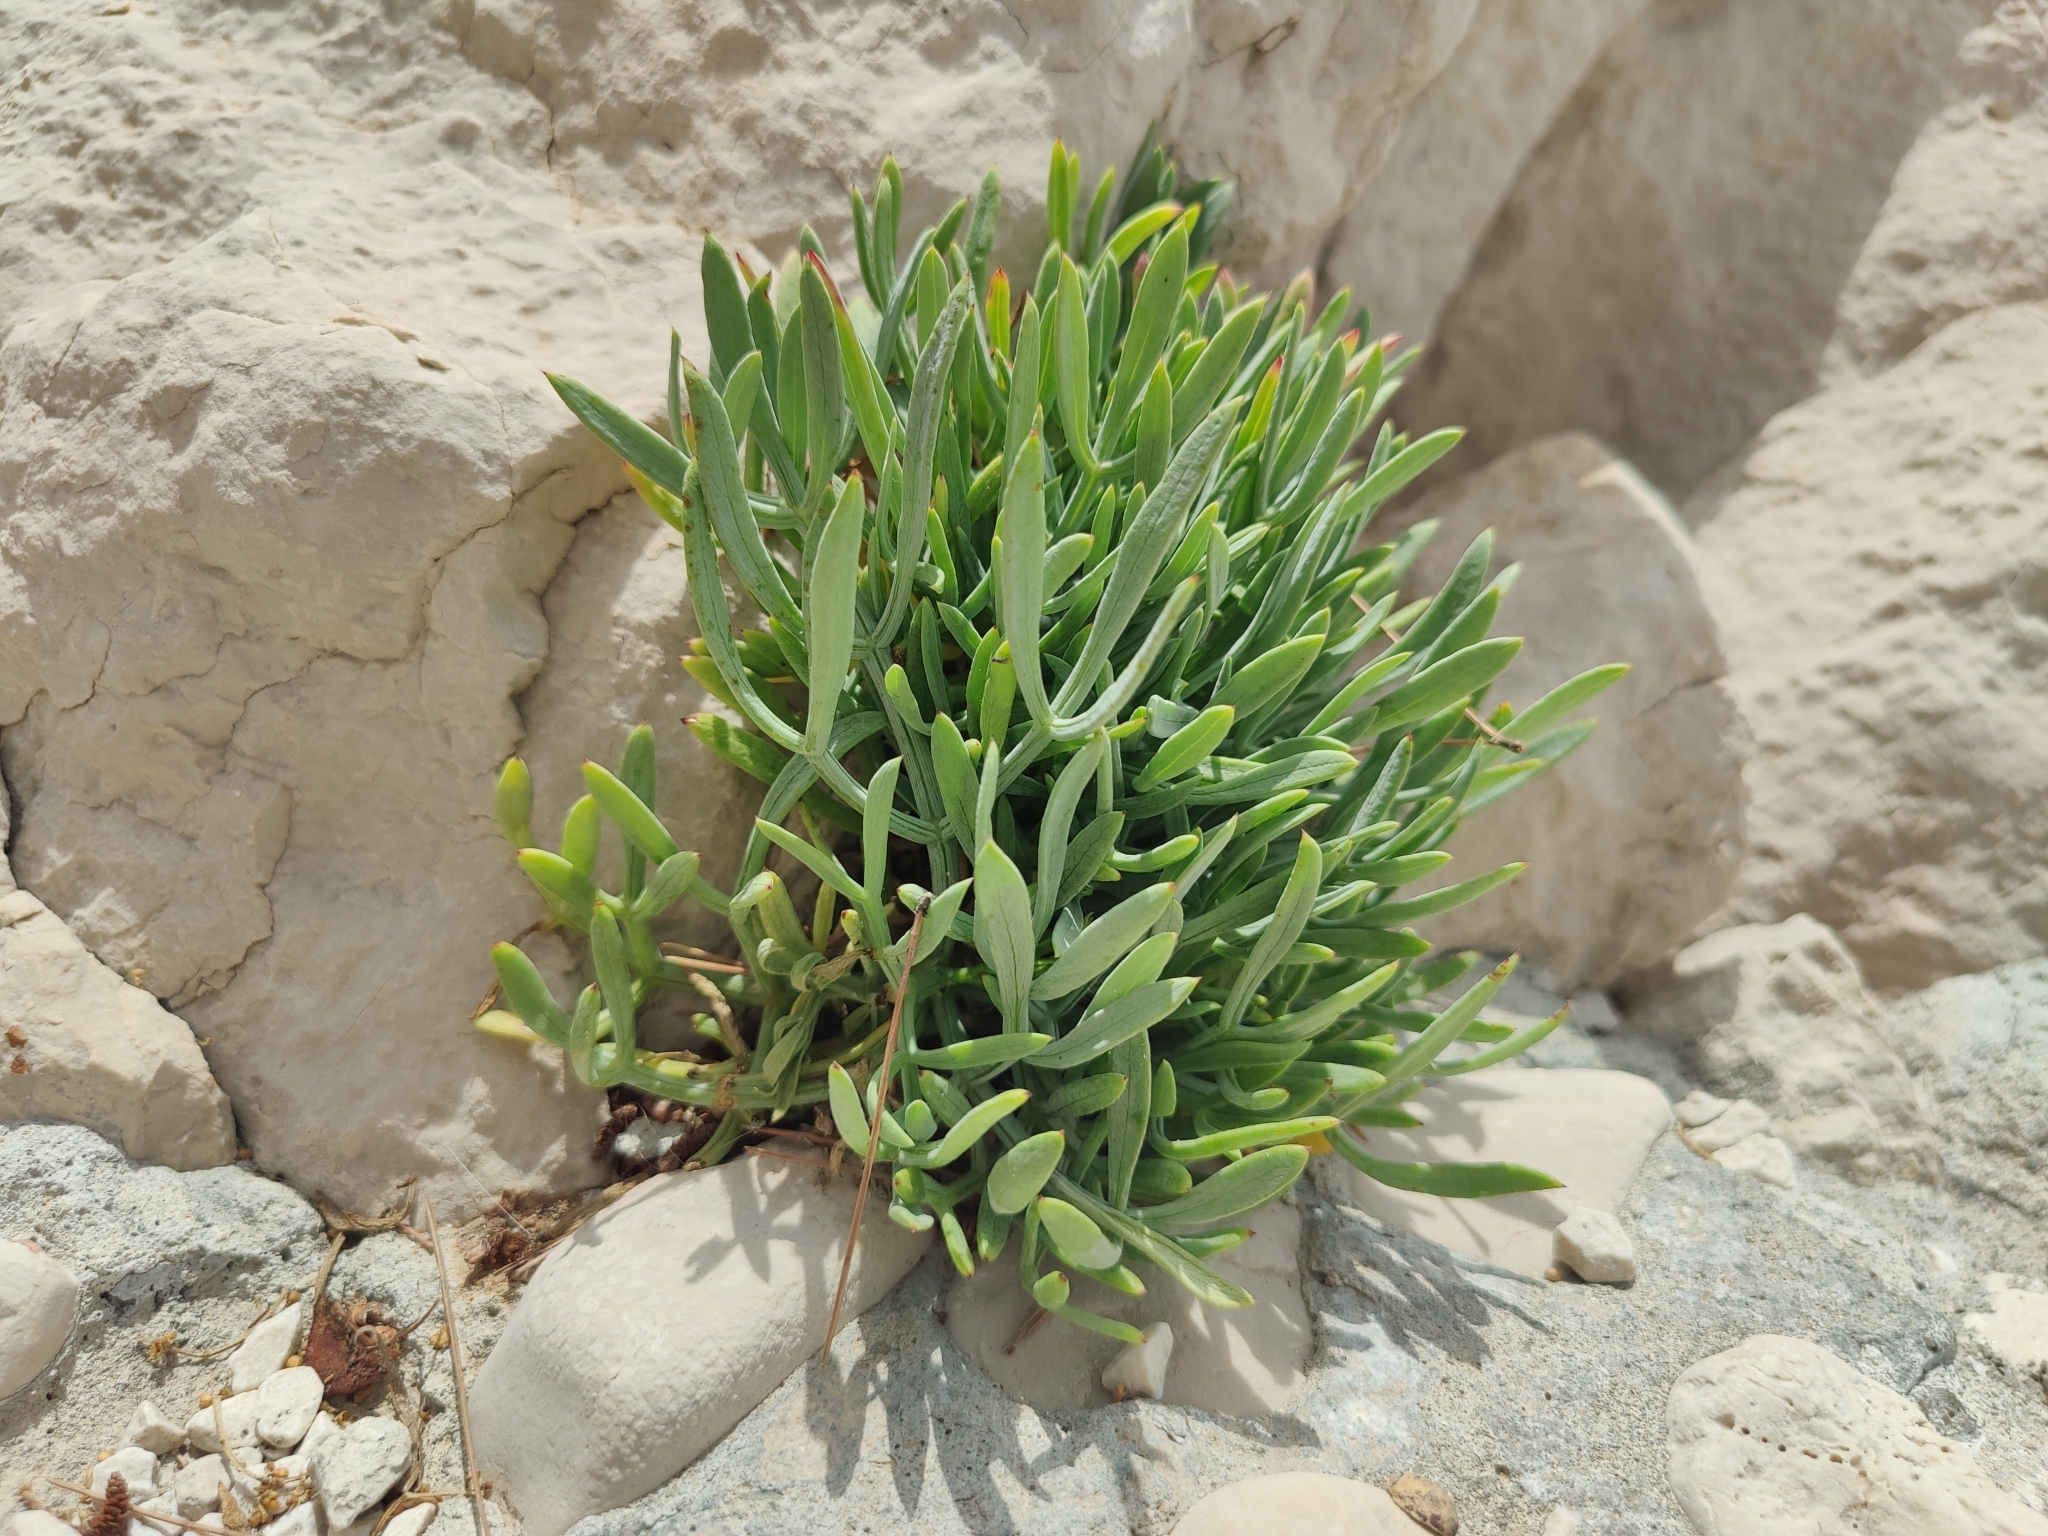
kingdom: Plantae
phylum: Tracheophyta
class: Magnoliopsida
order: Apiales
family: Apiaceae
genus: Crithmum
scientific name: Crithmum maritimum
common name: Rock samphire
